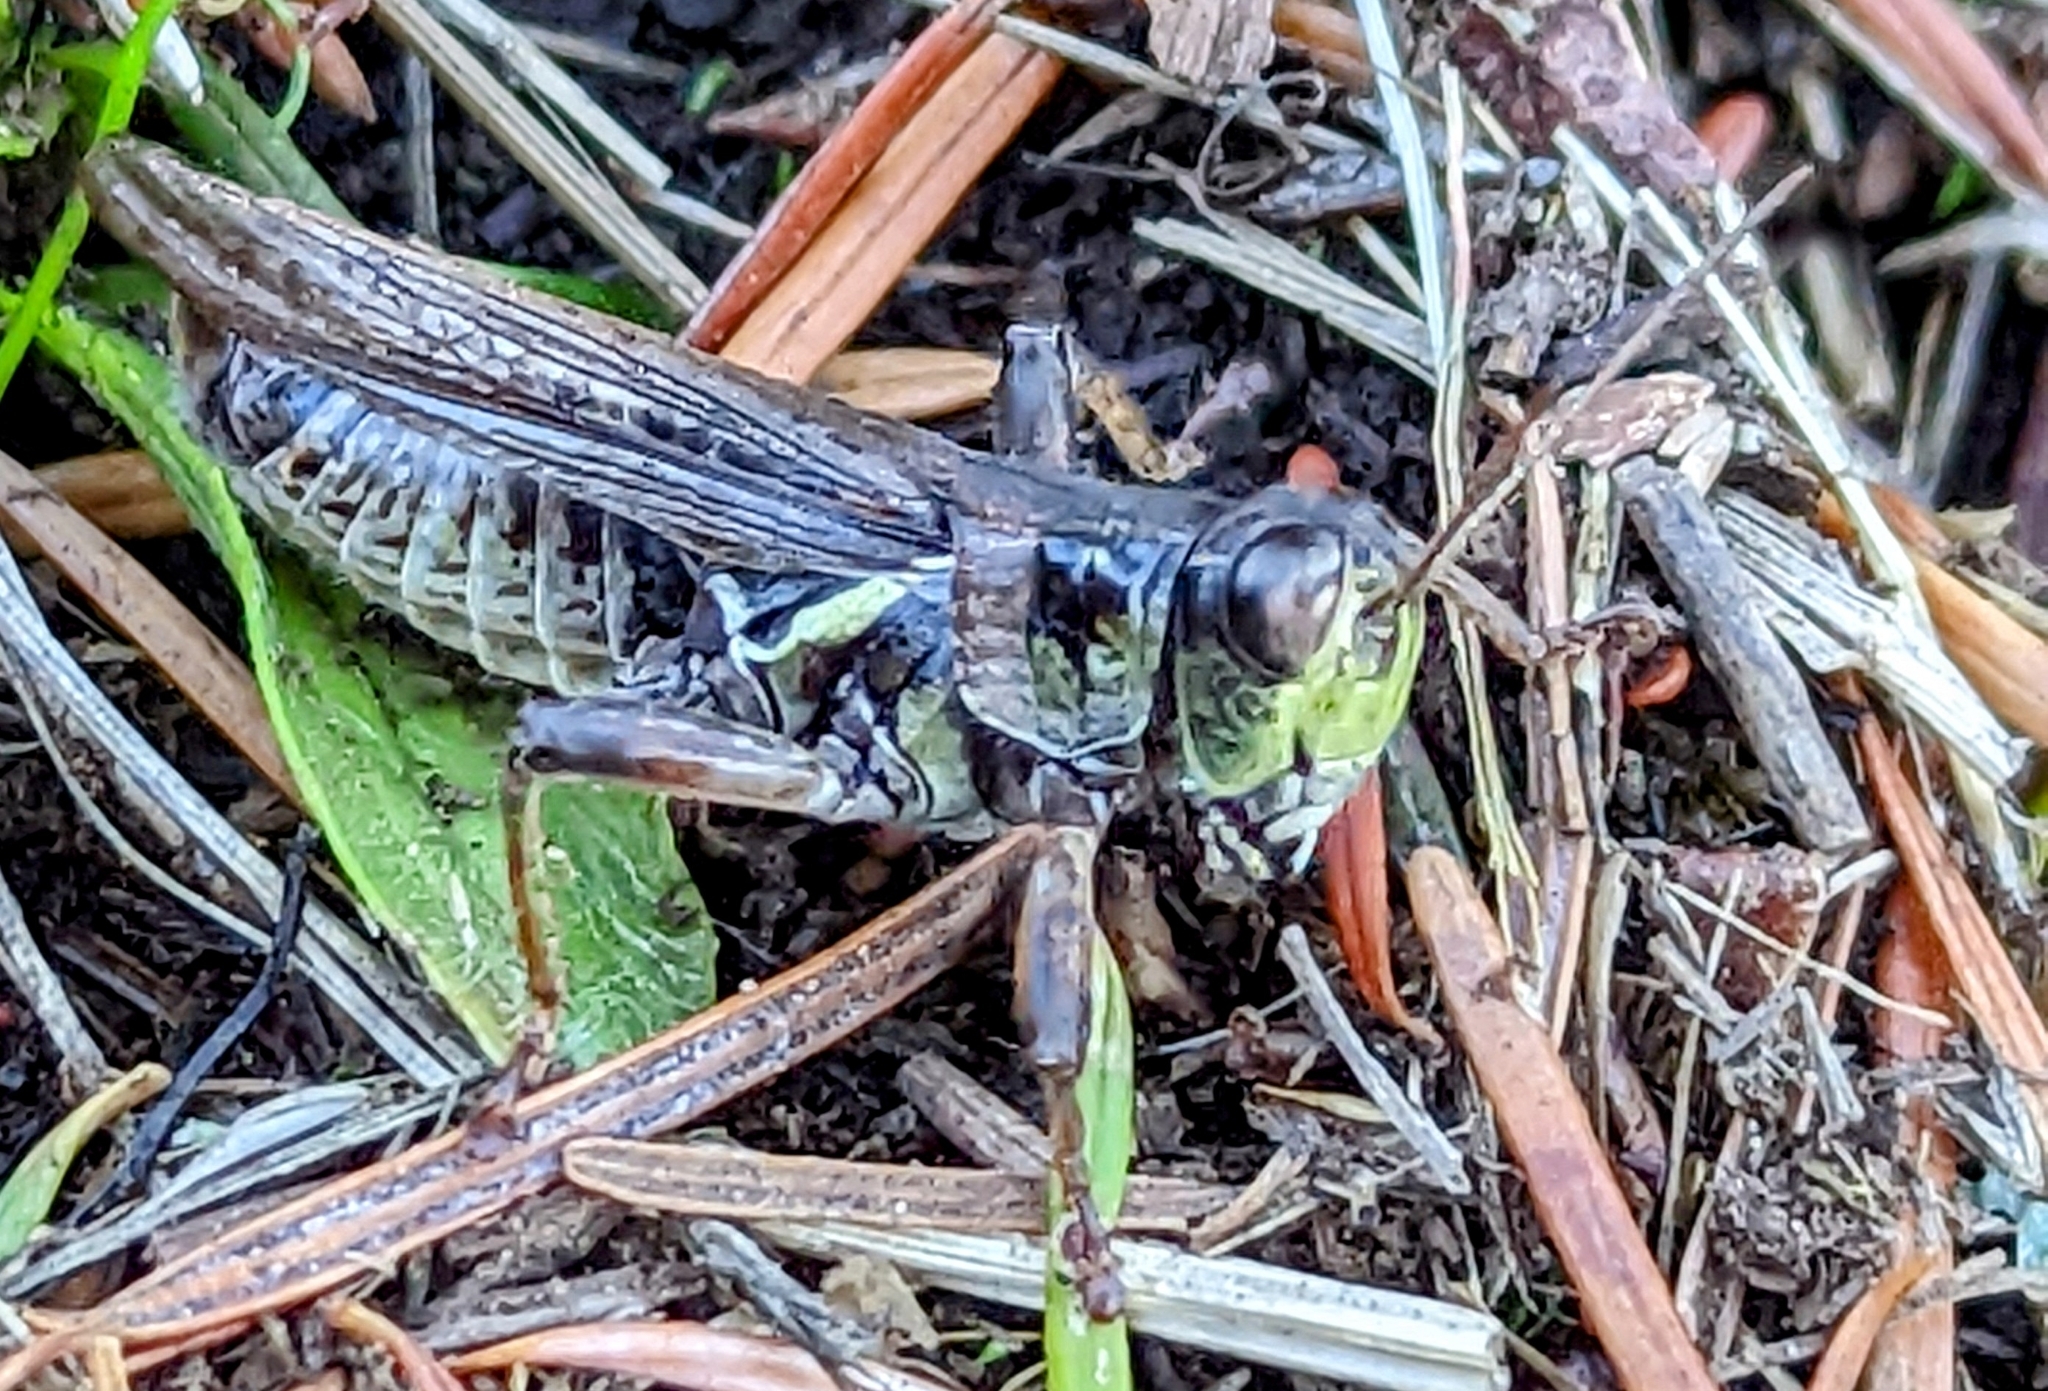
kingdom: Animalia
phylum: Arthropoda
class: Insecta
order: Orthoptera
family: Acrididae
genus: Melanoplus
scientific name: Melanoplus sanguinipes
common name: Migratory grasshopper
